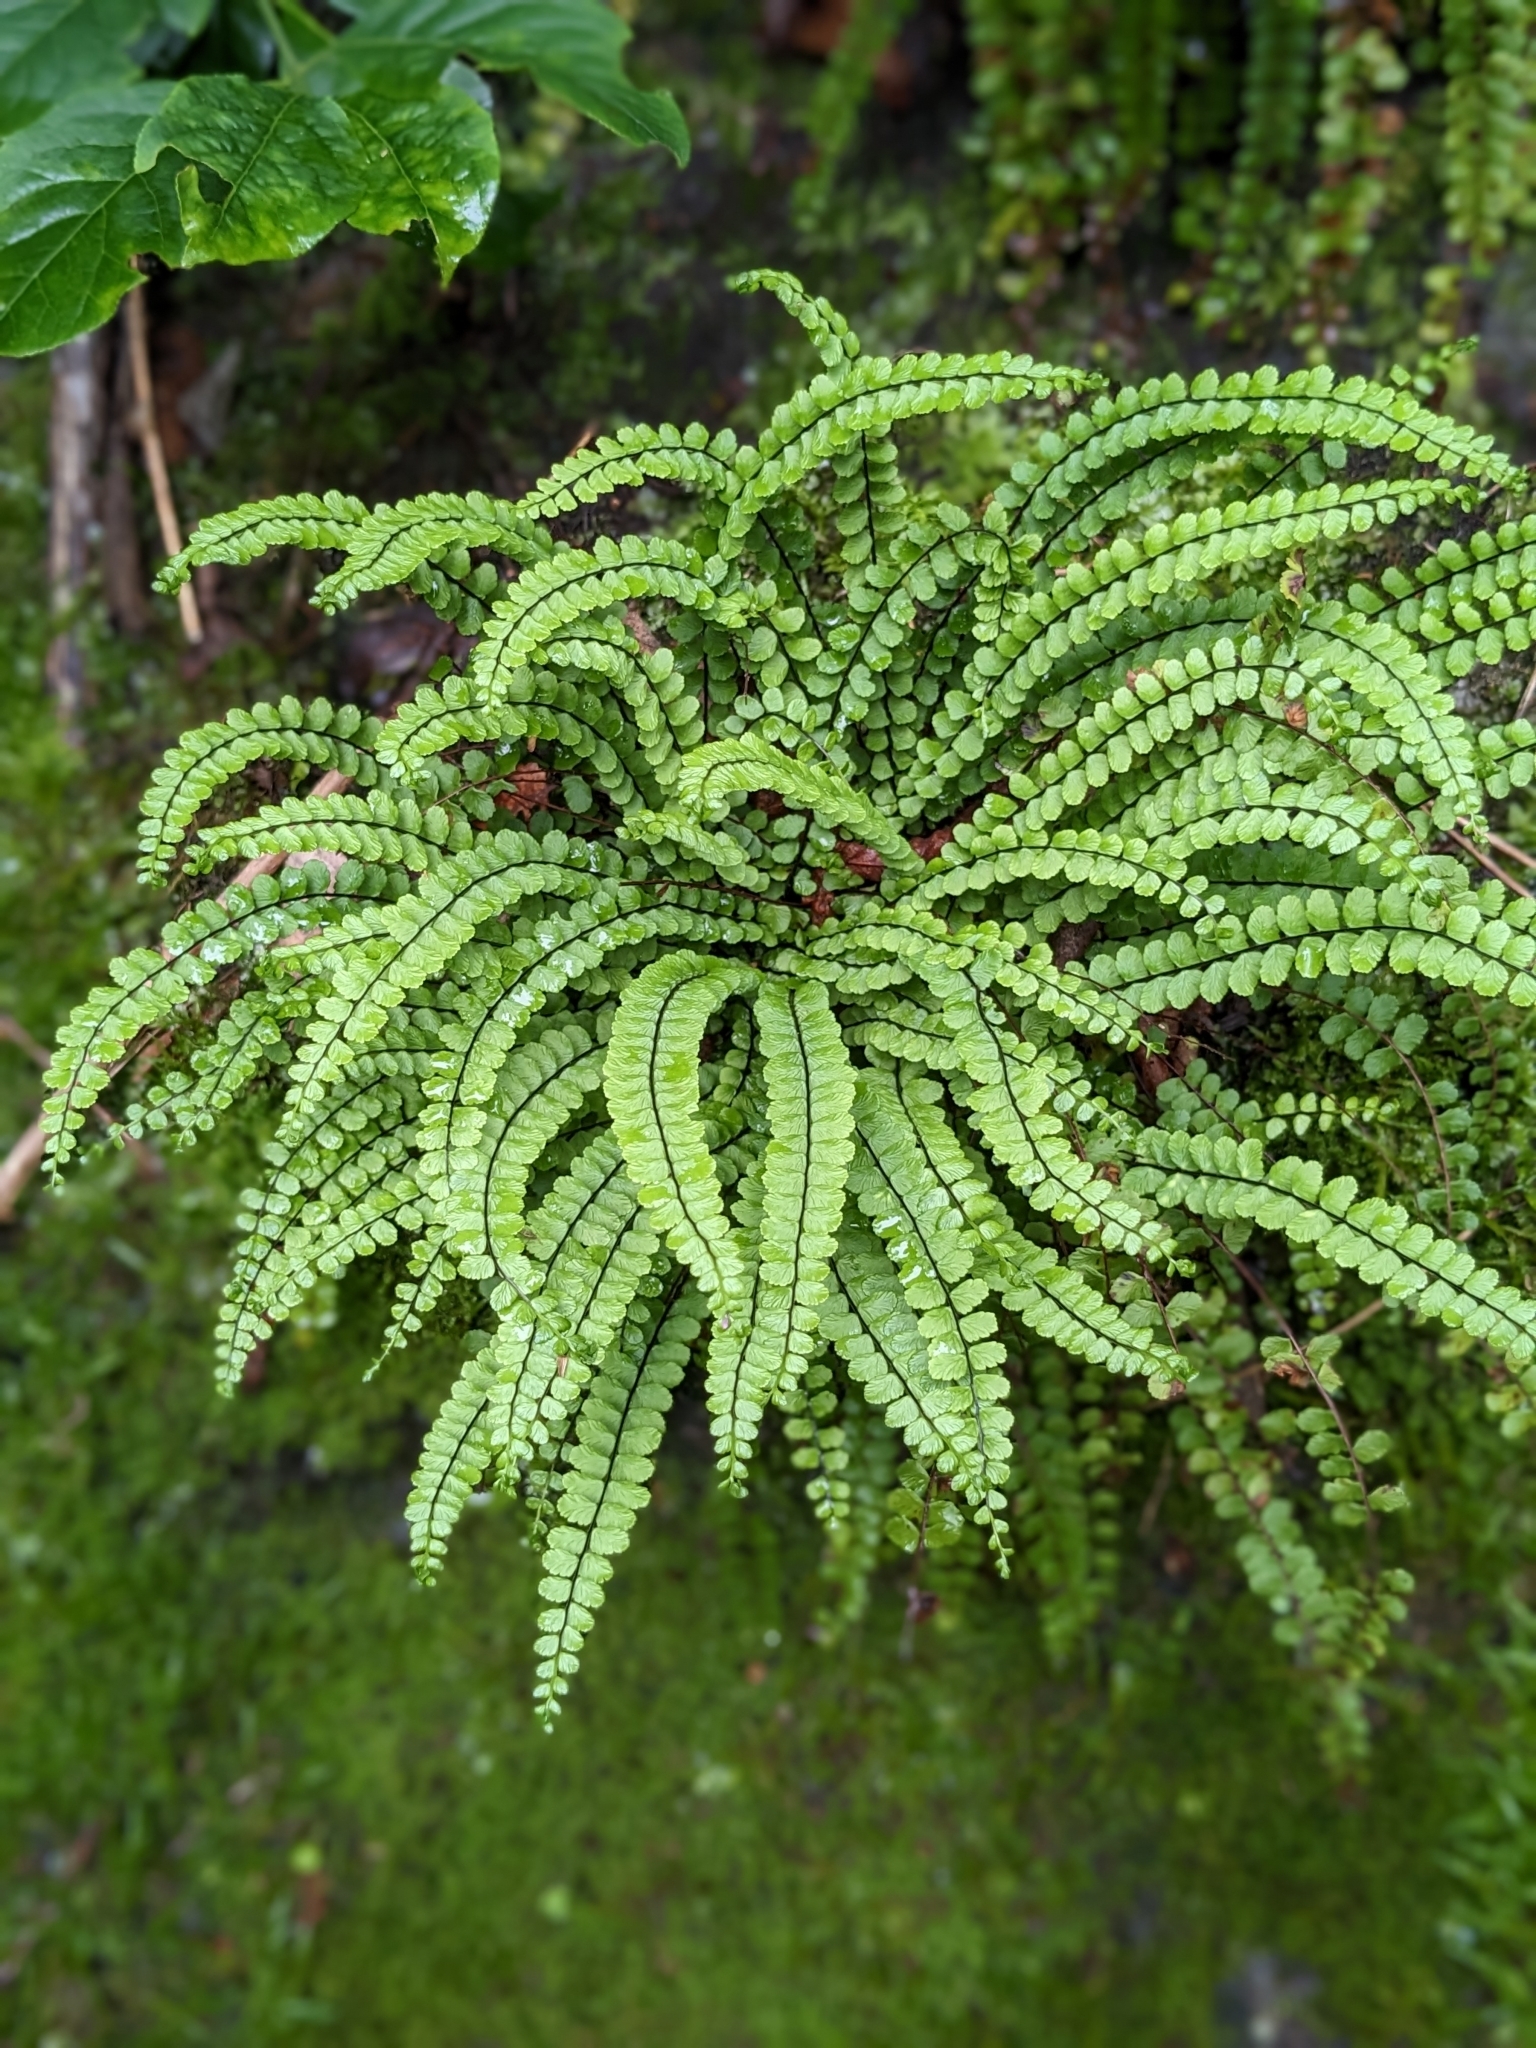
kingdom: Plantae
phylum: Tracheophyta
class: Polypodiopsida
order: Polypodiales
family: Aspleniaceae
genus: Asplenium
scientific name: Asplenium trichomanes
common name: Maidenhair spleenwort
